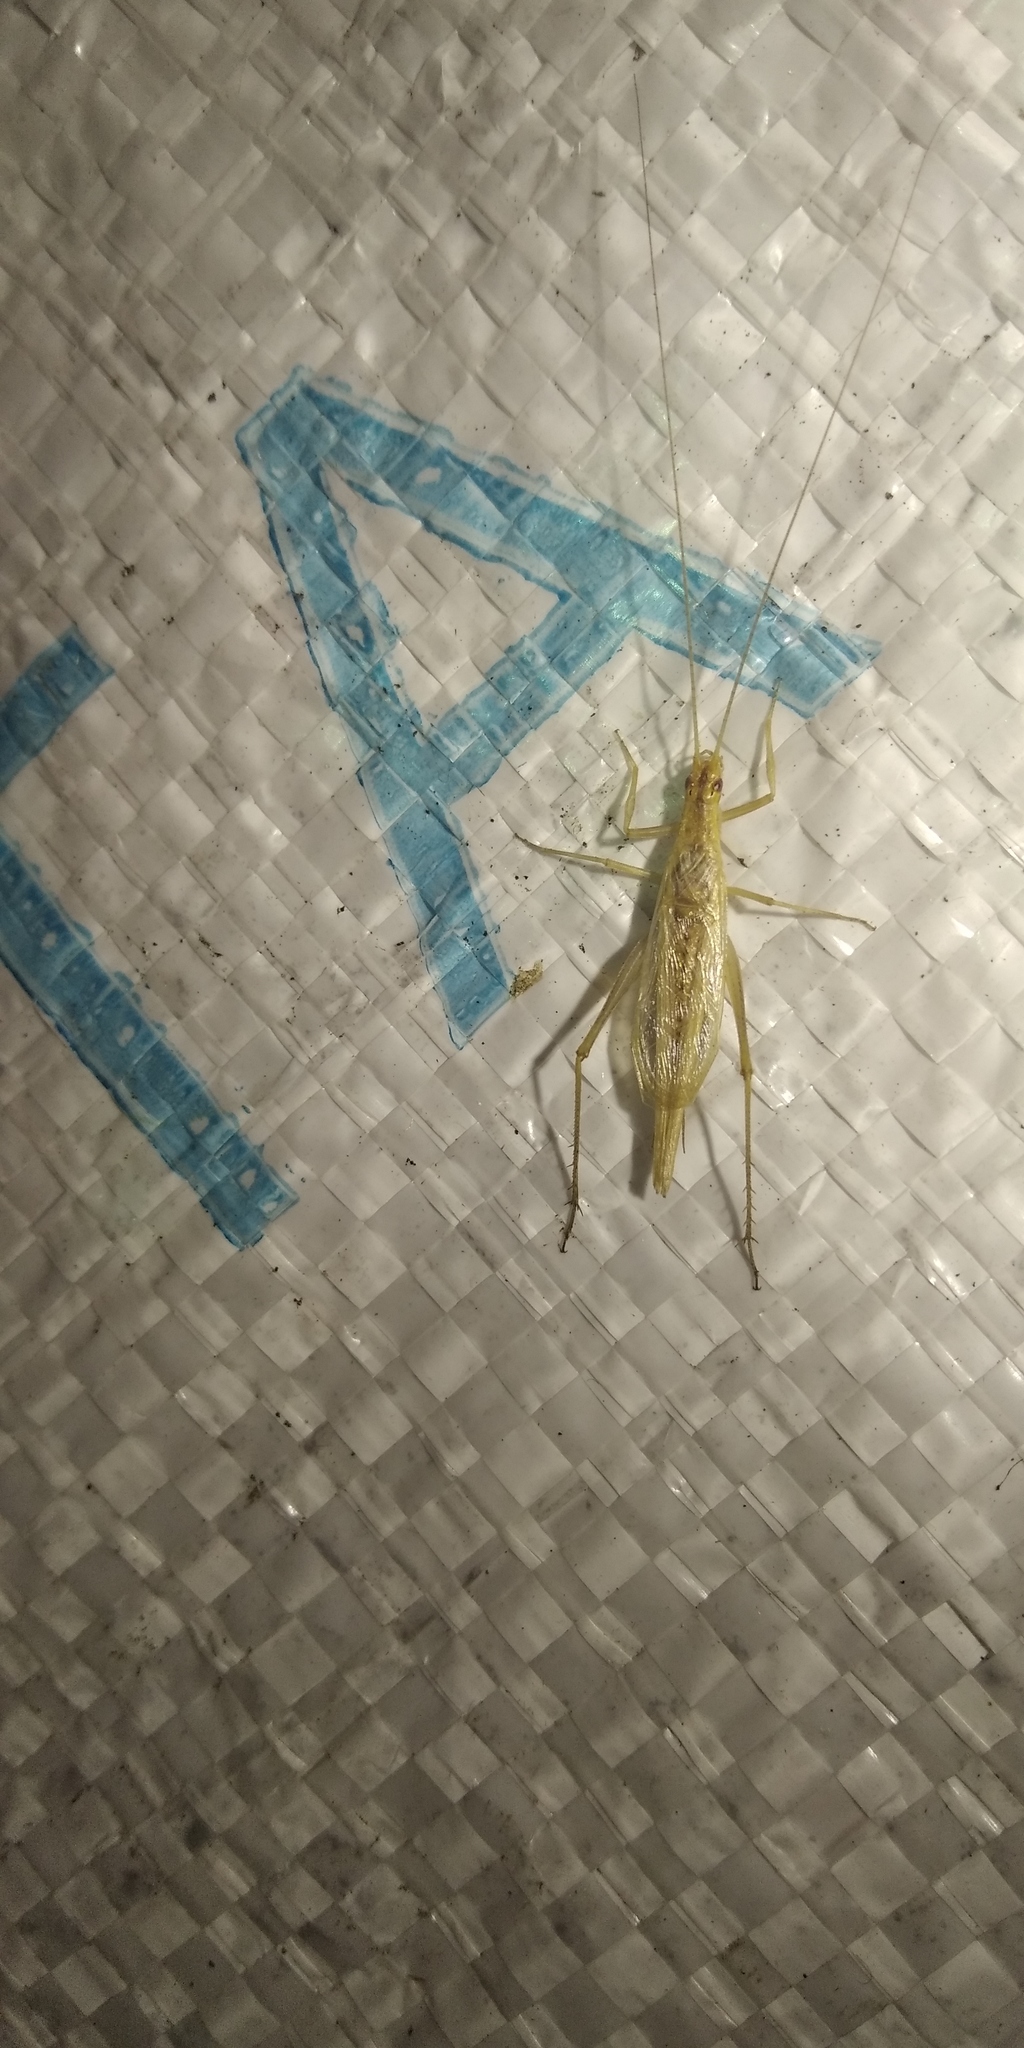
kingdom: Animalia
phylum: Arthropoda
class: Insecta
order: Orthoptera
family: Gryllidae
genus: Oecanthus
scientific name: Oecanthus pellucens
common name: Tree-cricket
